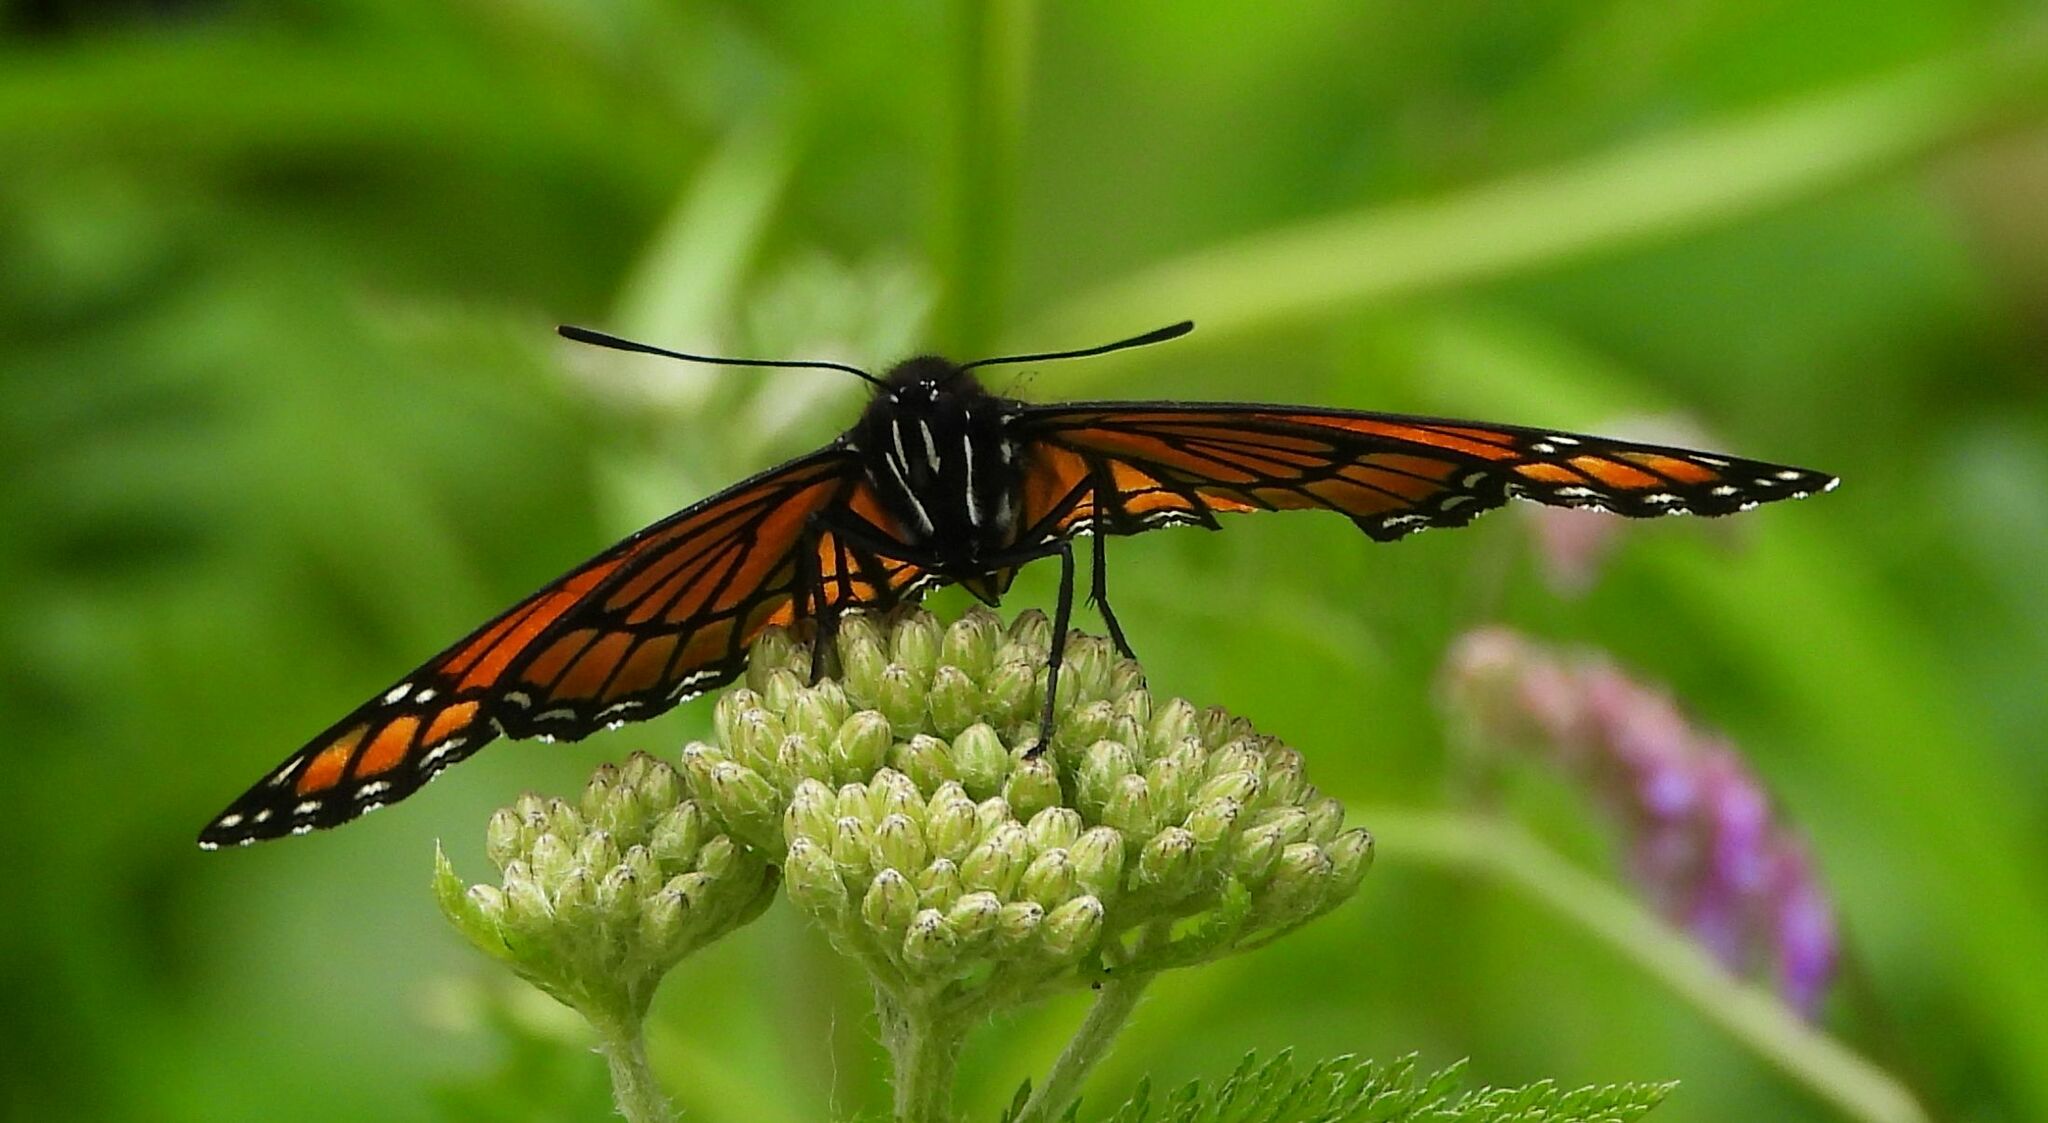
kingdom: Animalia
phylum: Arthropoda
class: Insecta
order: Lepidoptera
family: Nymphalidae
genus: Limenitis
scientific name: Limenitis archippus
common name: Viceroy
